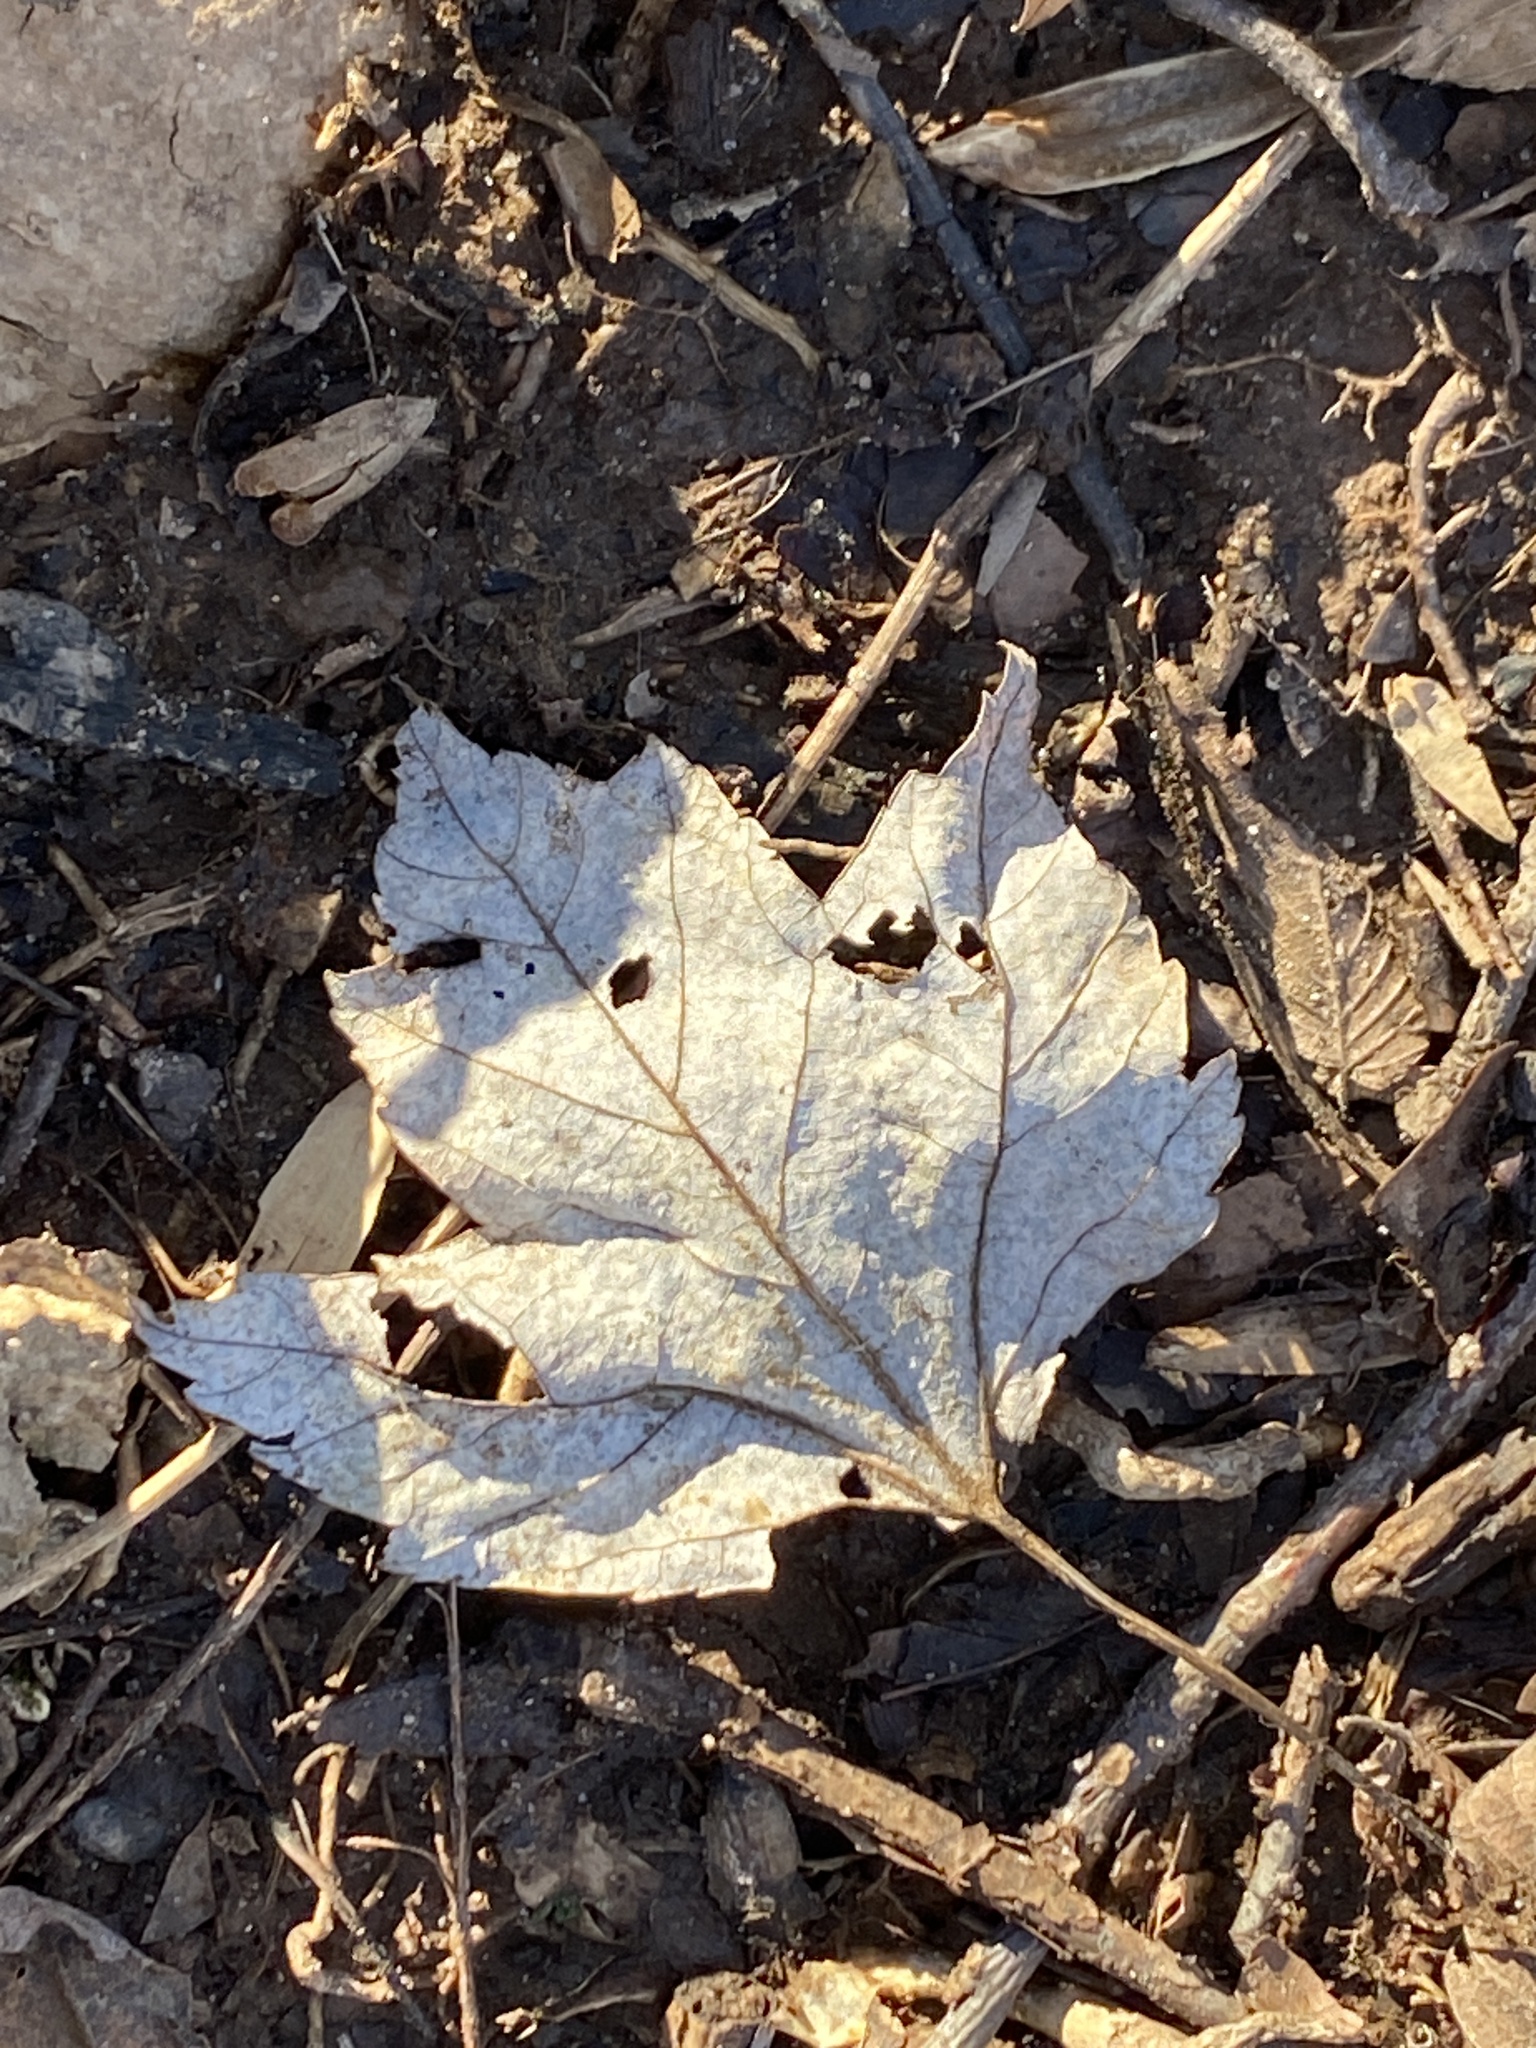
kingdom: Plantae
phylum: Tracheophyta
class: Magnoliopsida
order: Sapindales
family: Sapindaceae
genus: Acer
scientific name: Acer rubrum
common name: Red maple
